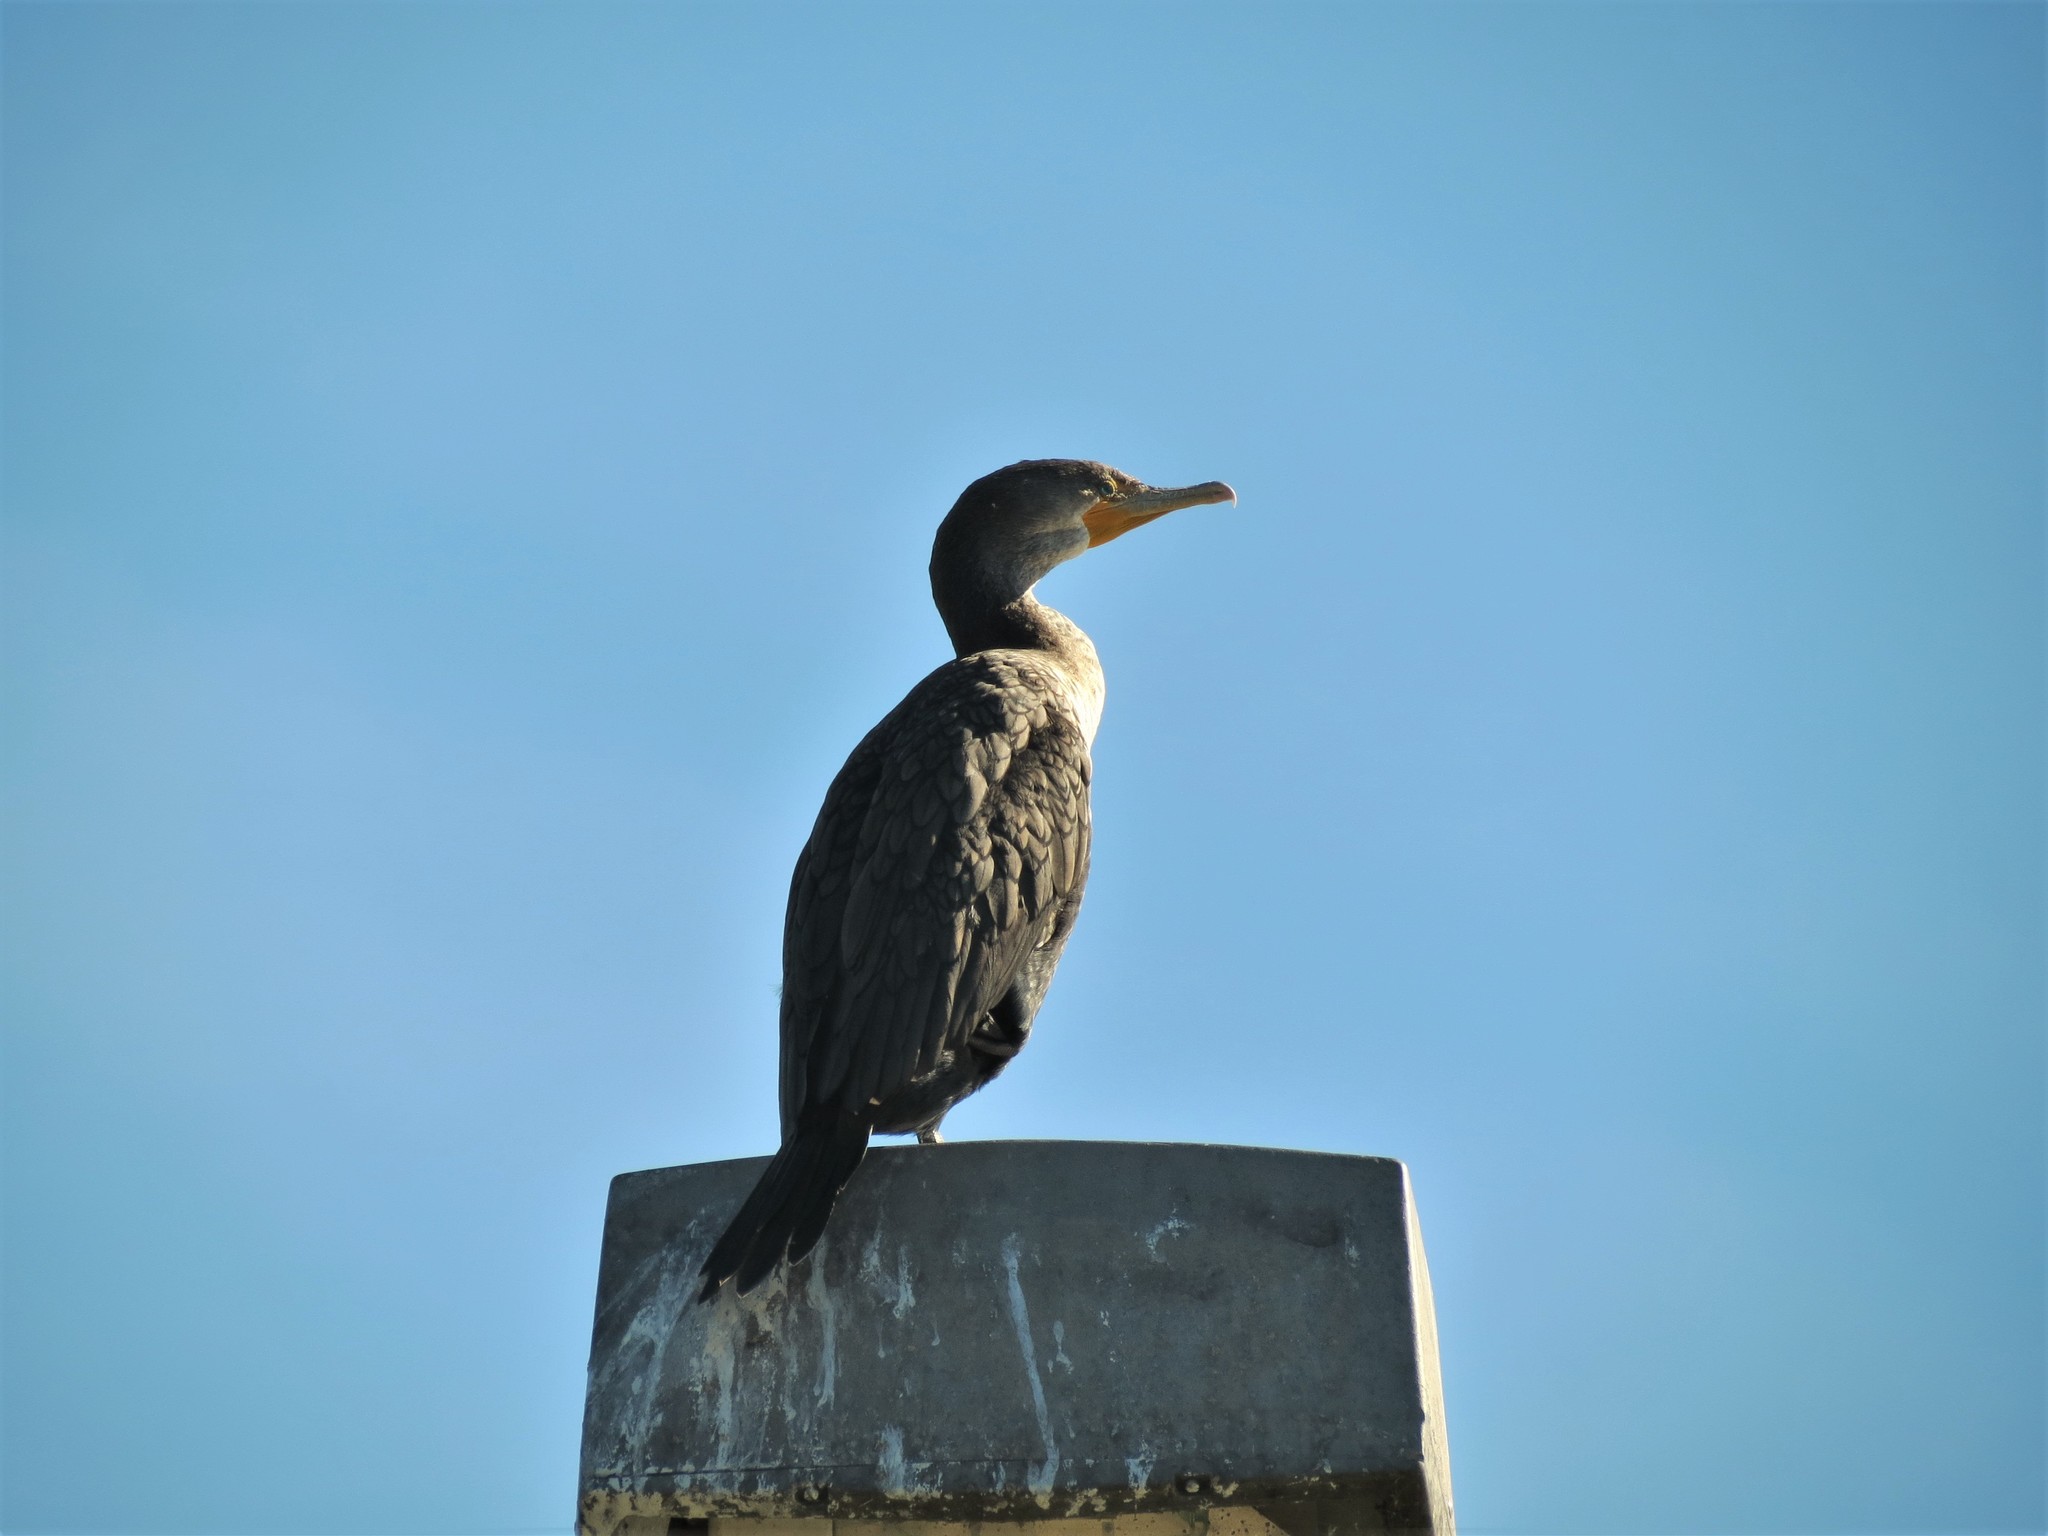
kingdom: Animalia
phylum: Chordata
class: Aves
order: Suliformes
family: Phalacrocoracidae
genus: Phalacrocorax
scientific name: Phalacrocorax auritus
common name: Double-crested cormorant
